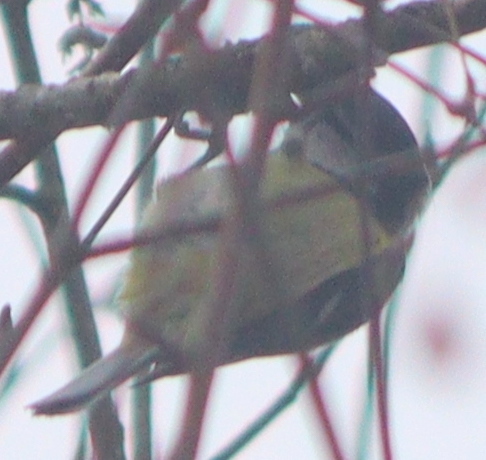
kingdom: Animalia
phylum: Chordata
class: Aves
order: Passeriformes
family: Paridae
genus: Cyanistes
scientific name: Cyanistes caeruleus
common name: Eurasian blue tit
